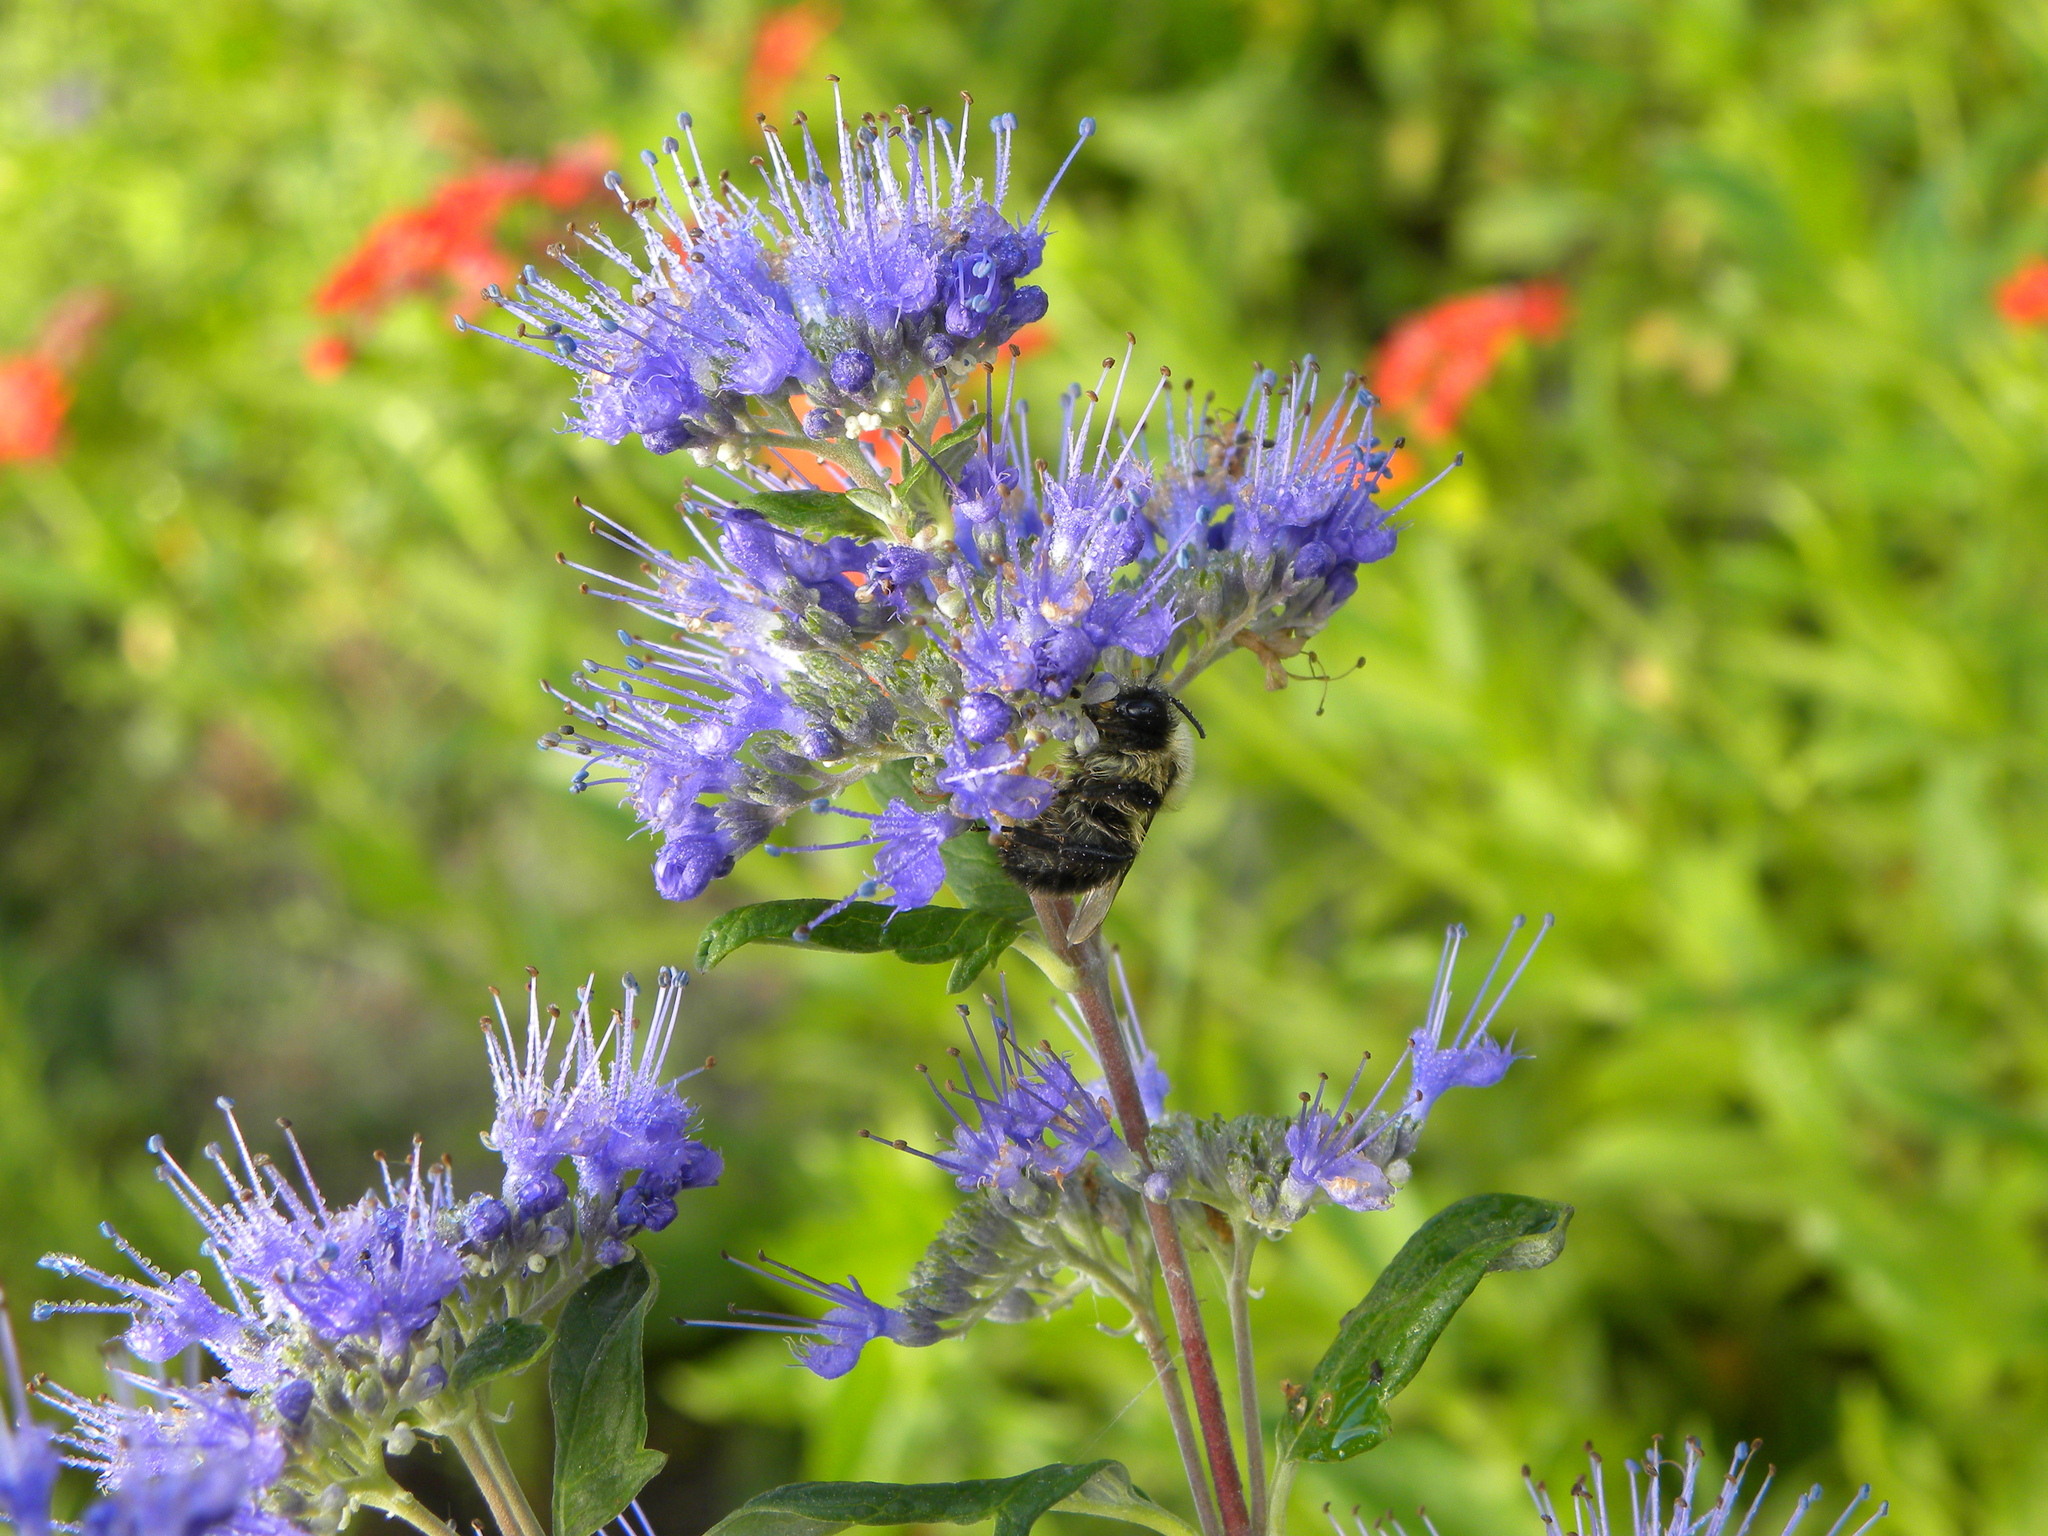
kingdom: Animalia
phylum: Arthropoda
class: Insecta
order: Hymenoptera
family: Apidae
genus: Bombus
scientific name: Bombus impatiens
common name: Common eastern bumble bee
